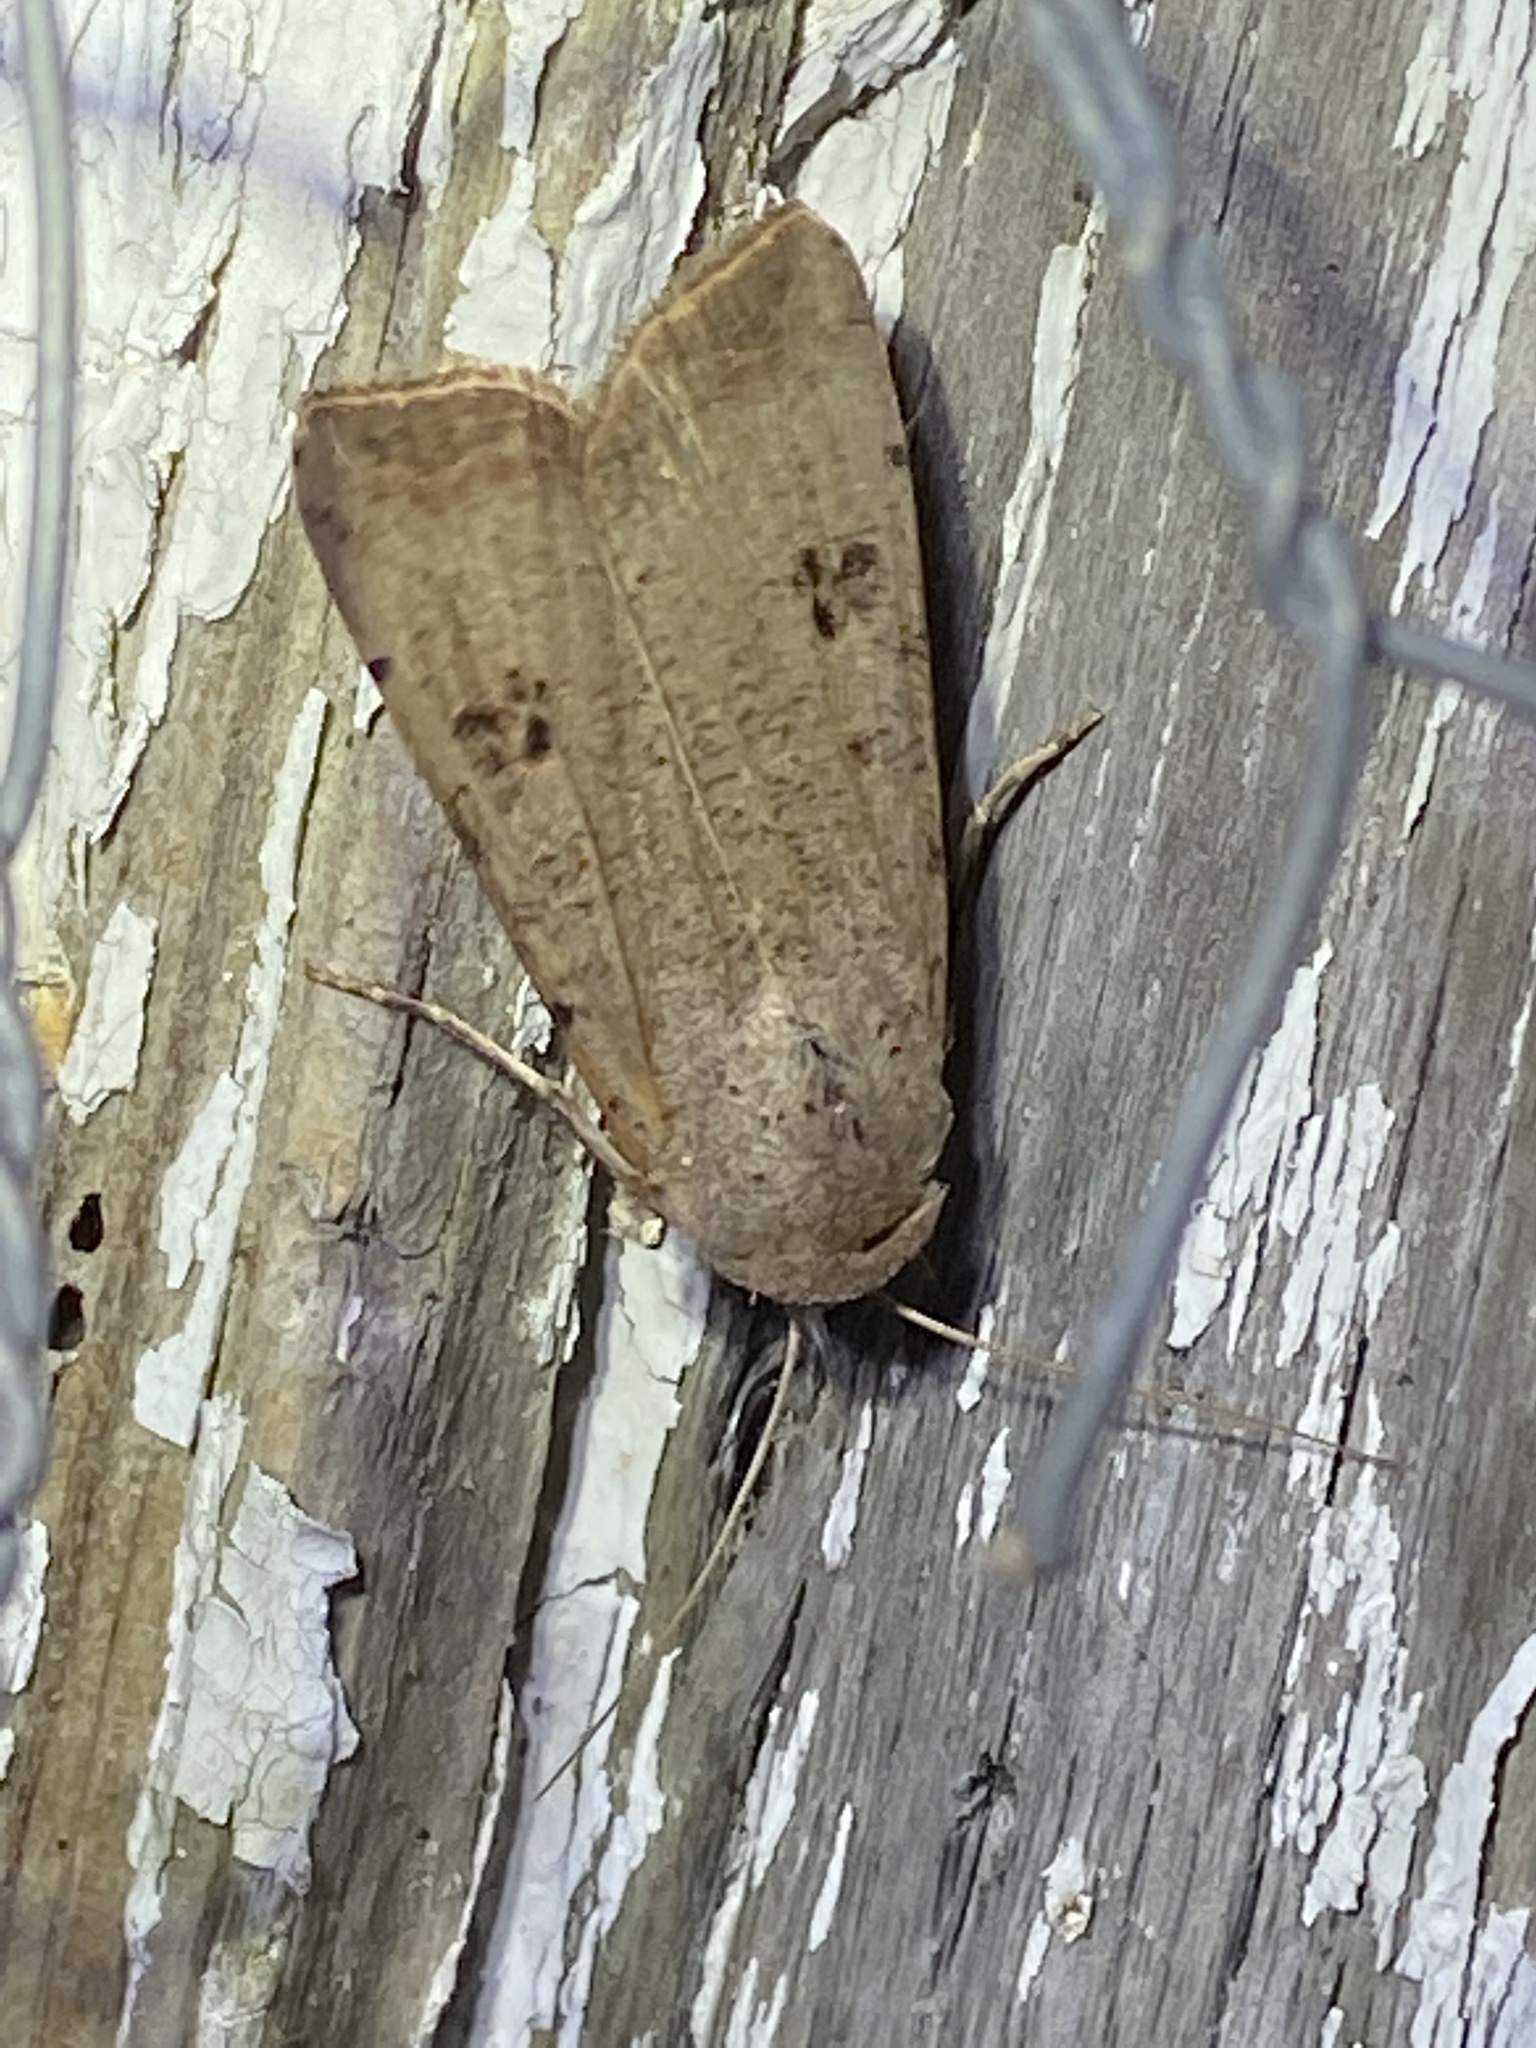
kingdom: Animalia
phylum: Arthropoda
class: Insecta
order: Lepidoptera
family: Noctuidae
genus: Anicla
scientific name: Anicla infecta
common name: Green cutworm
